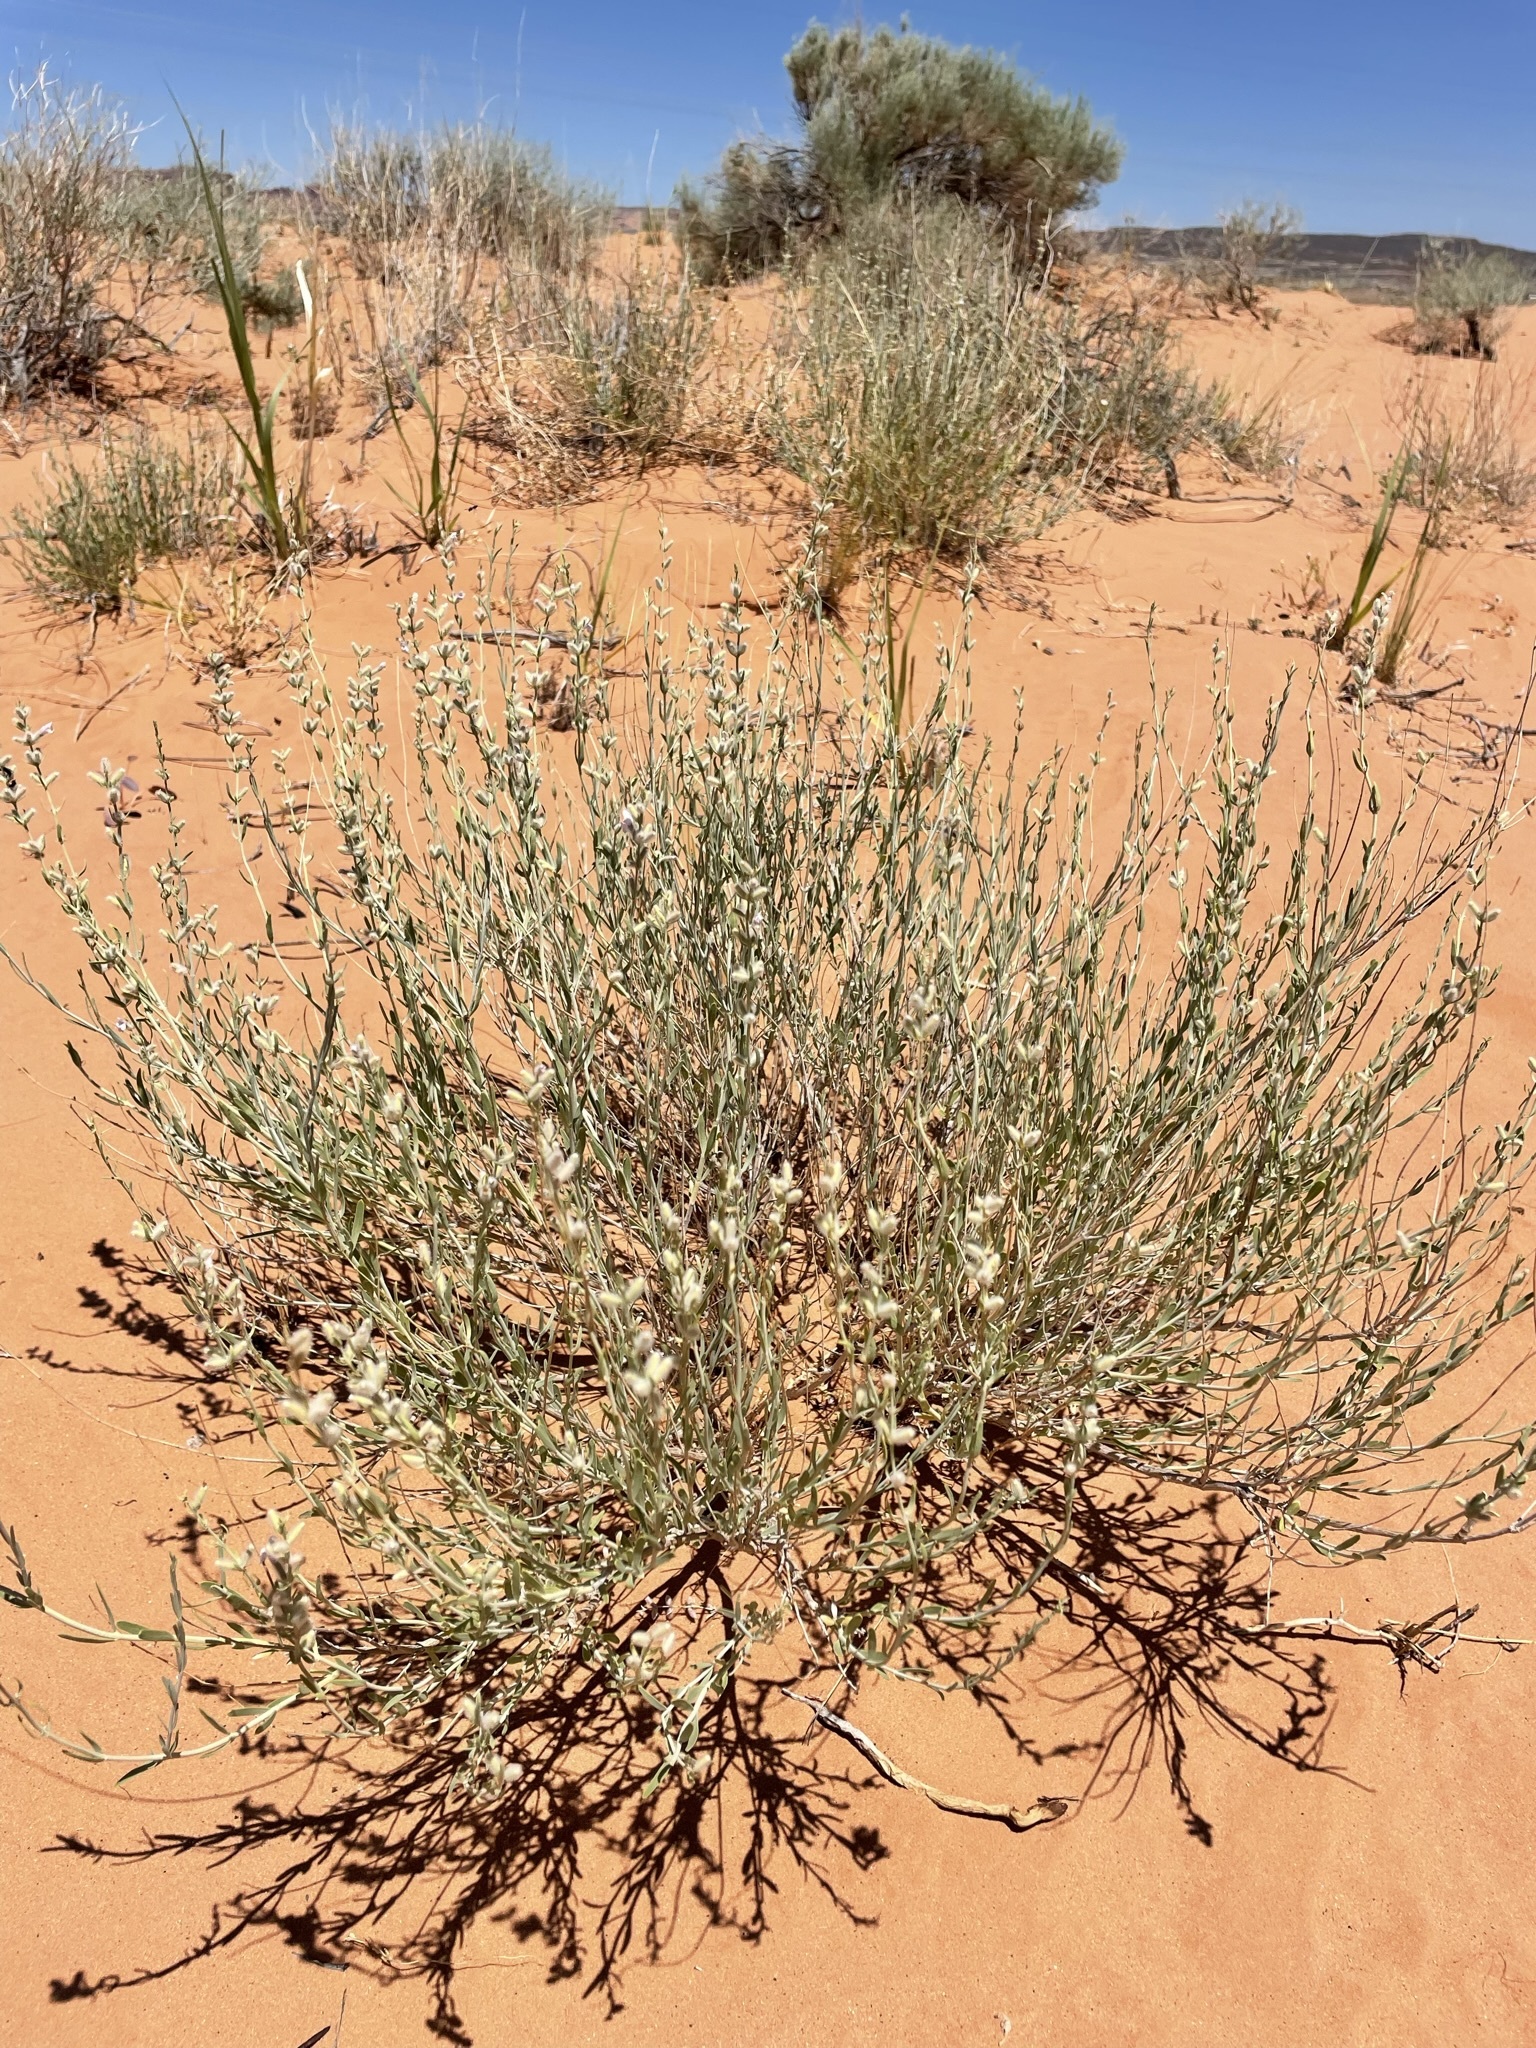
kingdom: Plantae
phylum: Tracheophyta
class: Magnoliopsida
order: Lamiales
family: Lamiaceae
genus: Poliomintha
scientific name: Poliomintha incana
